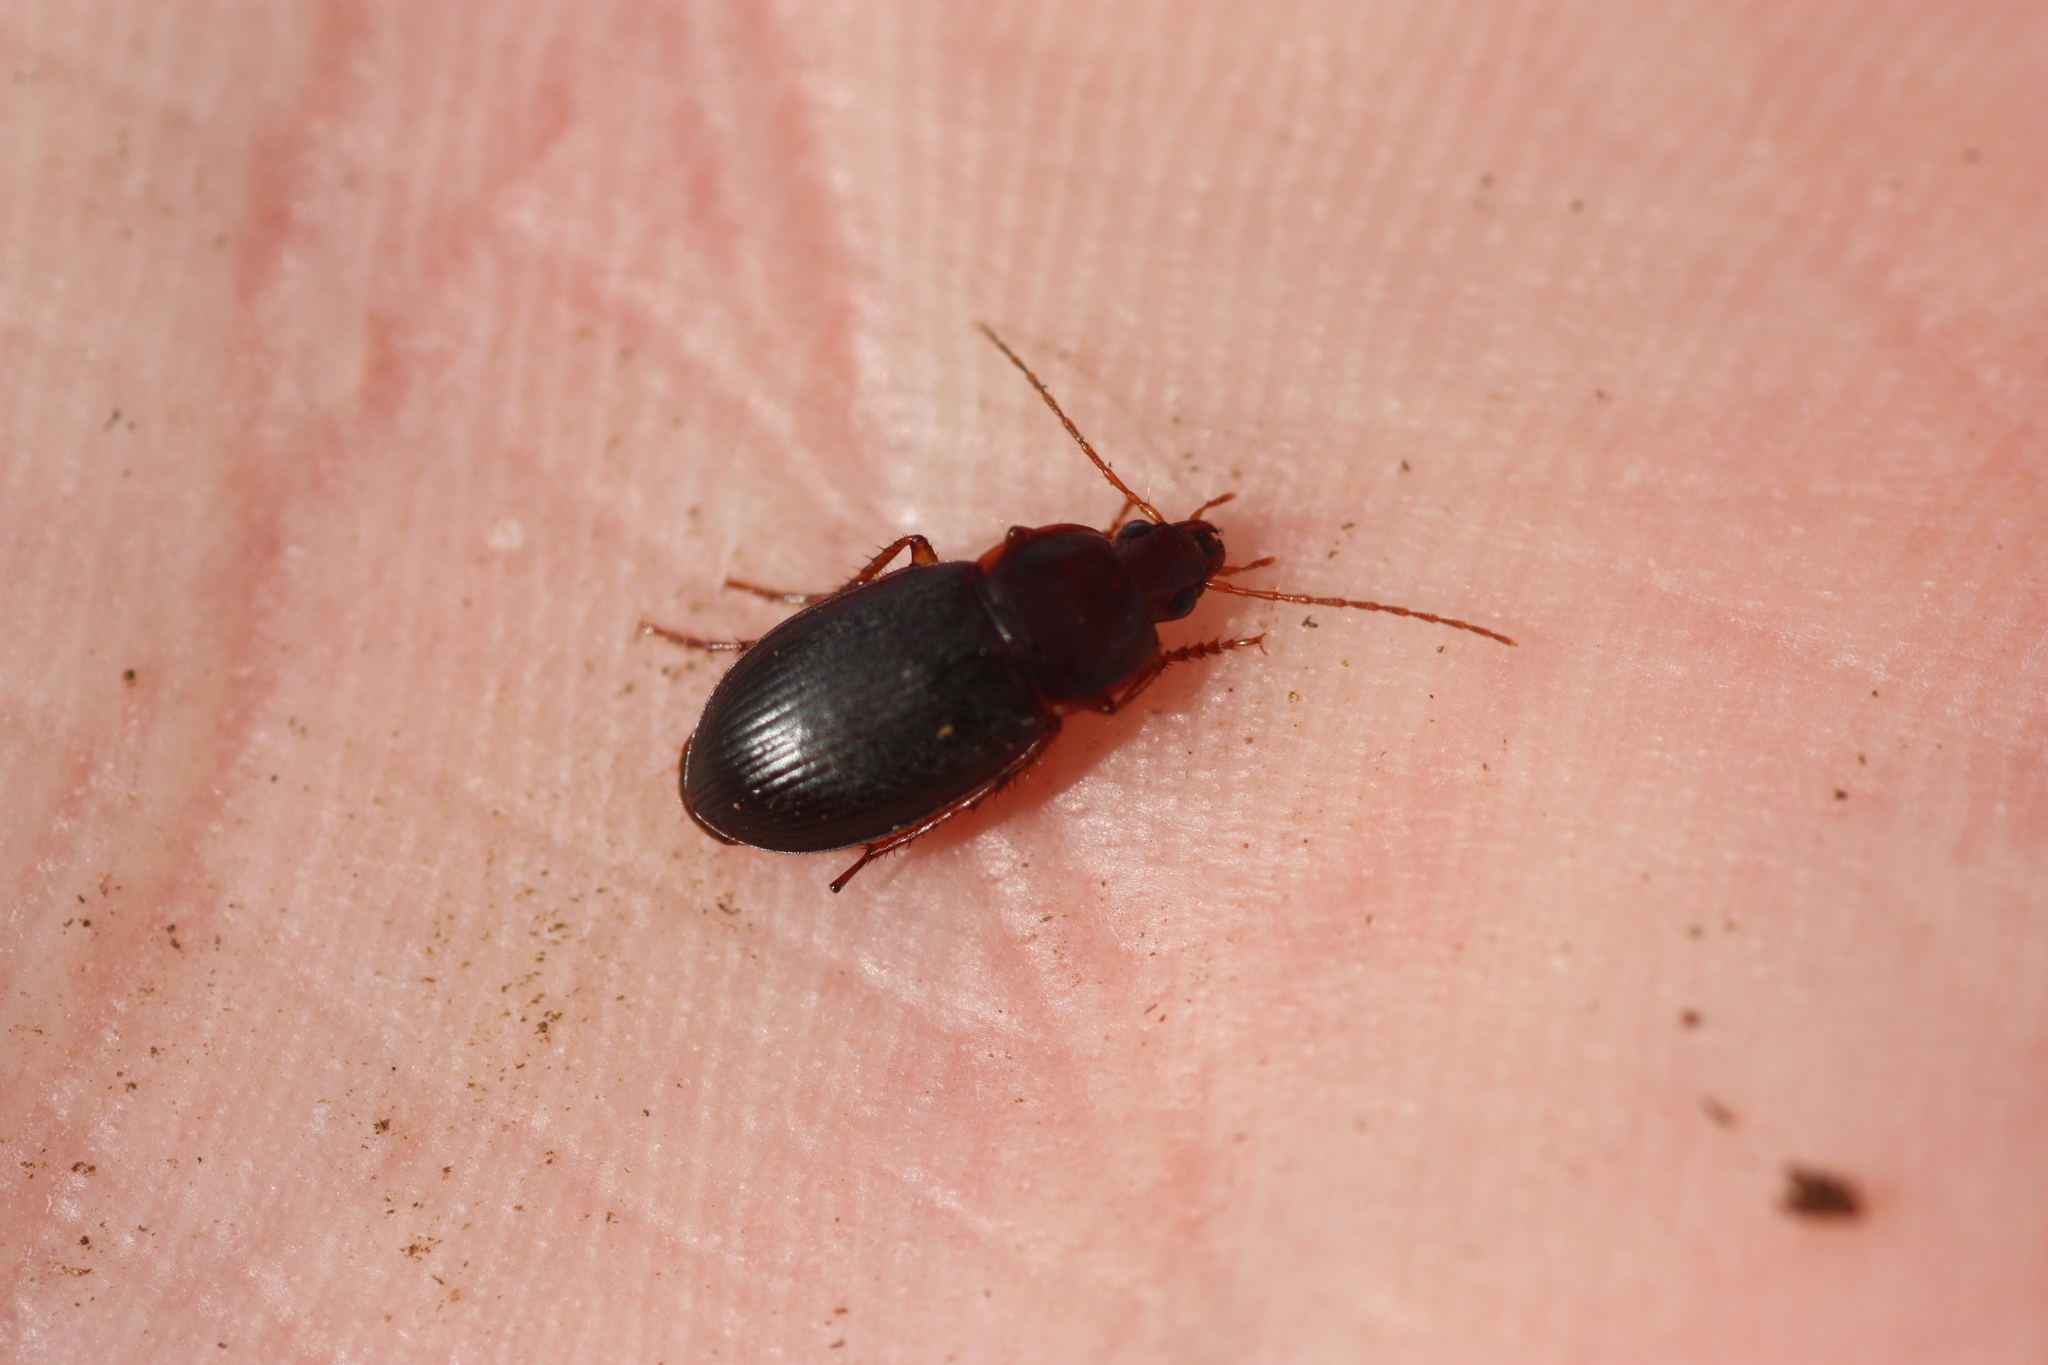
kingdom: Animalia
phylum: Arthropoda
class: Insecta
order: Coleoptera
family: Carabidae
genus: Calathus
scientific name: Calathus ruficollis
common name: Red-collared harp ground beetle
